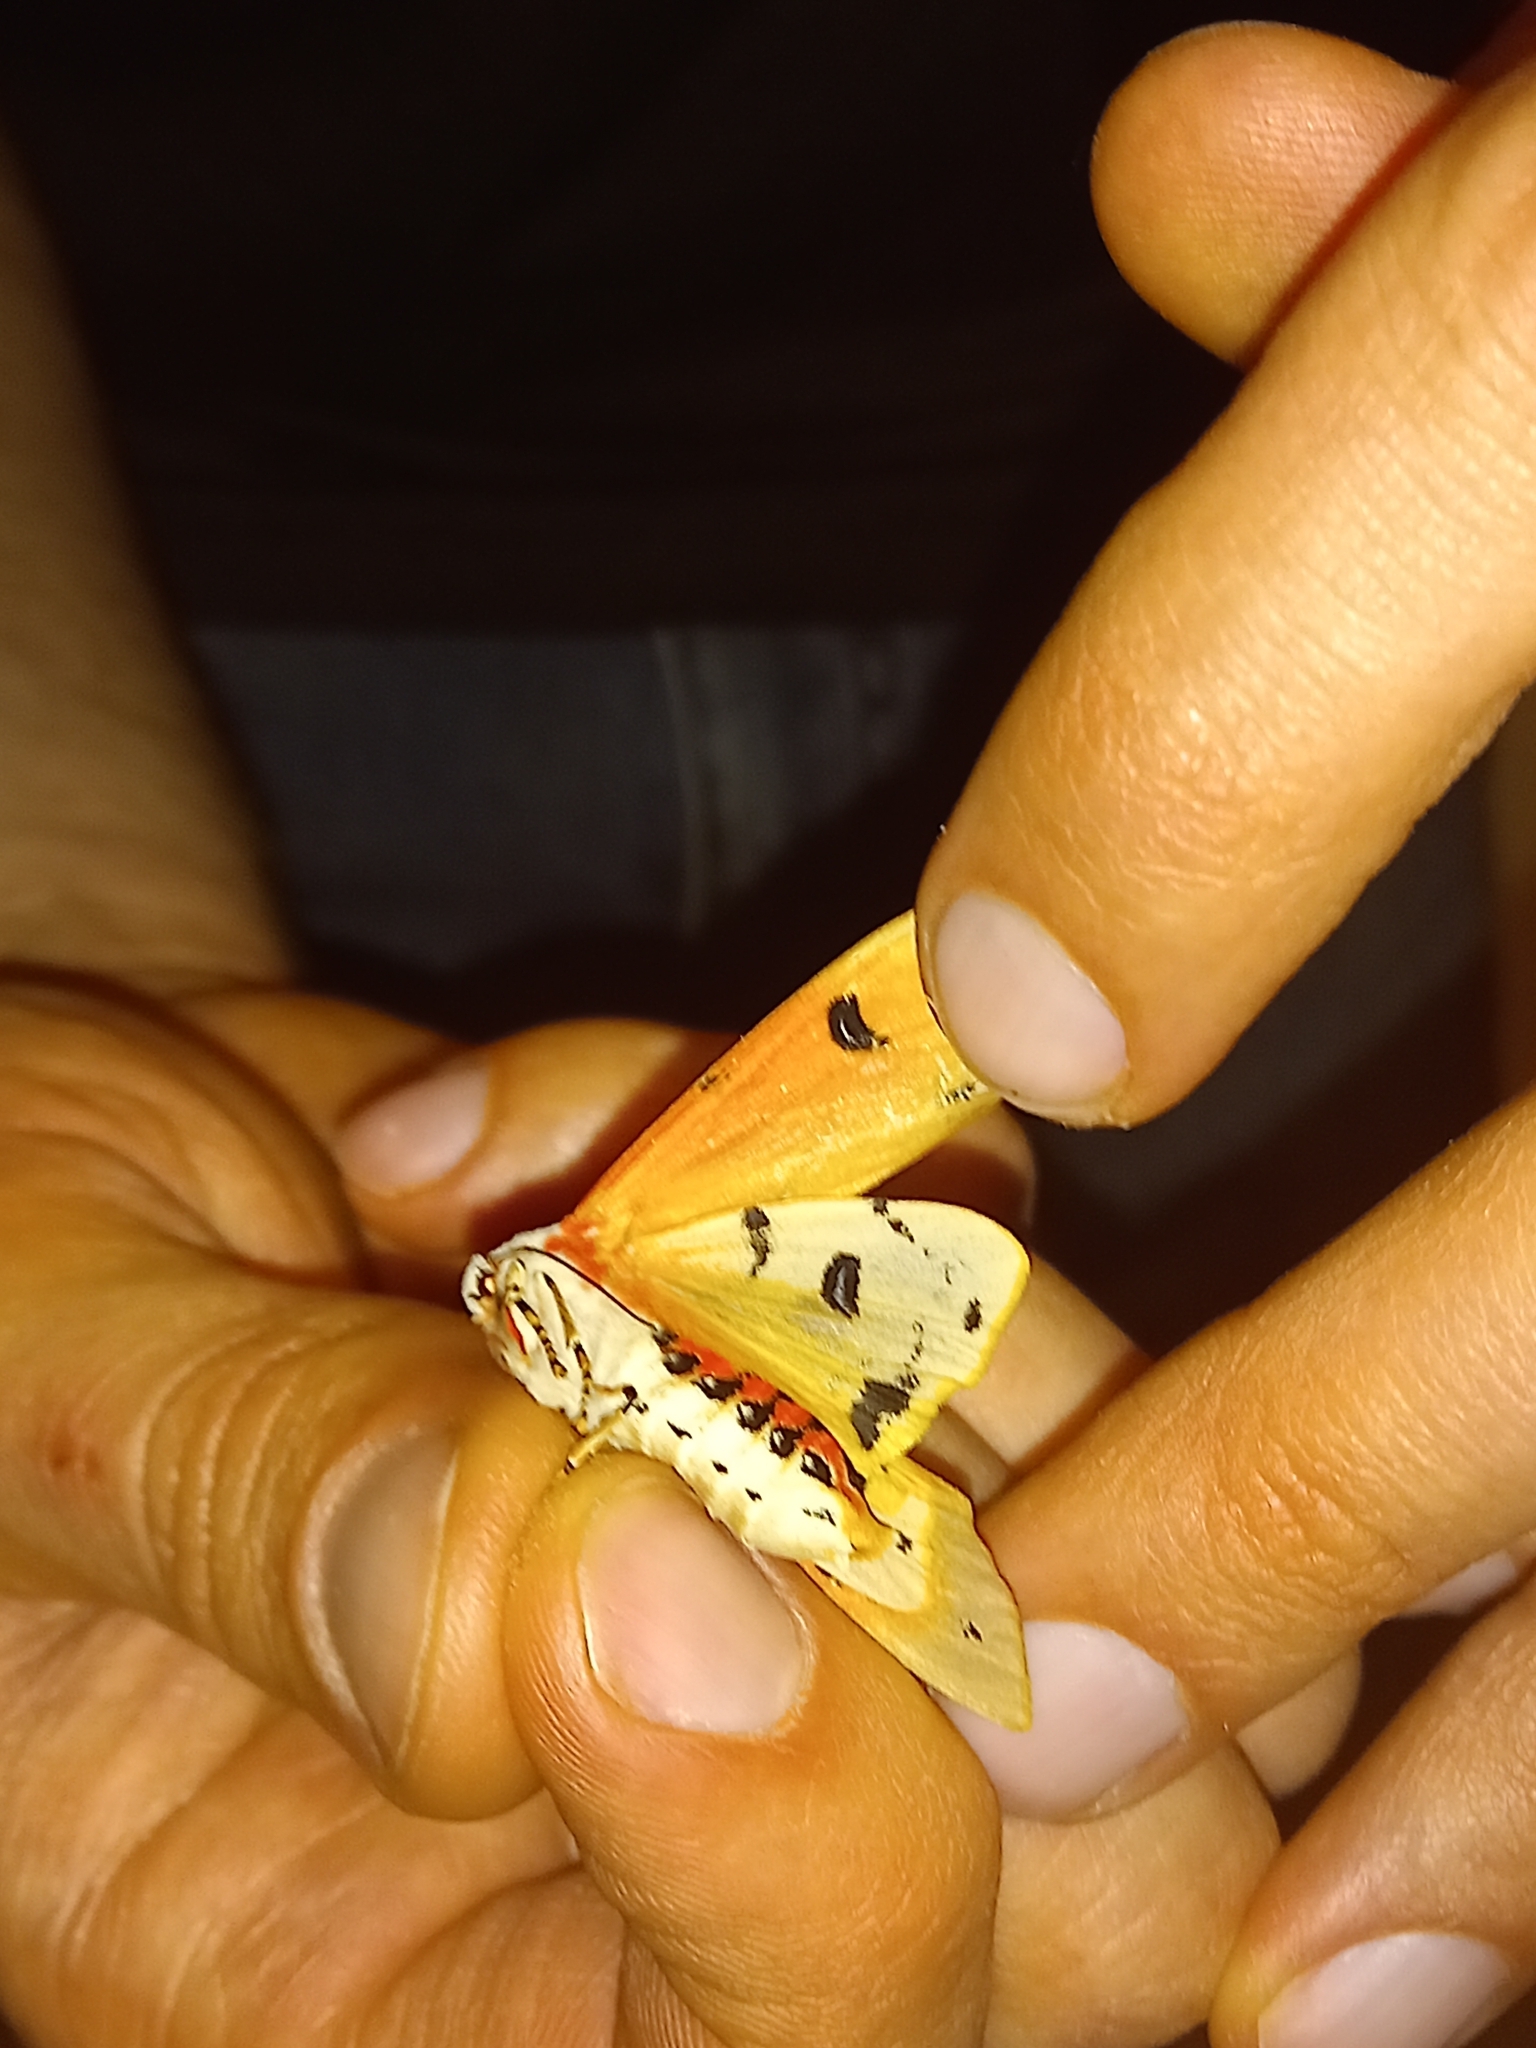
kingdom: Animalia
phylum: Arthropoda
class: Insecta
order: Lepidoptera
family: Erebidae
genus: Rhodogastria
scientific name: Rhodogastria amasis
